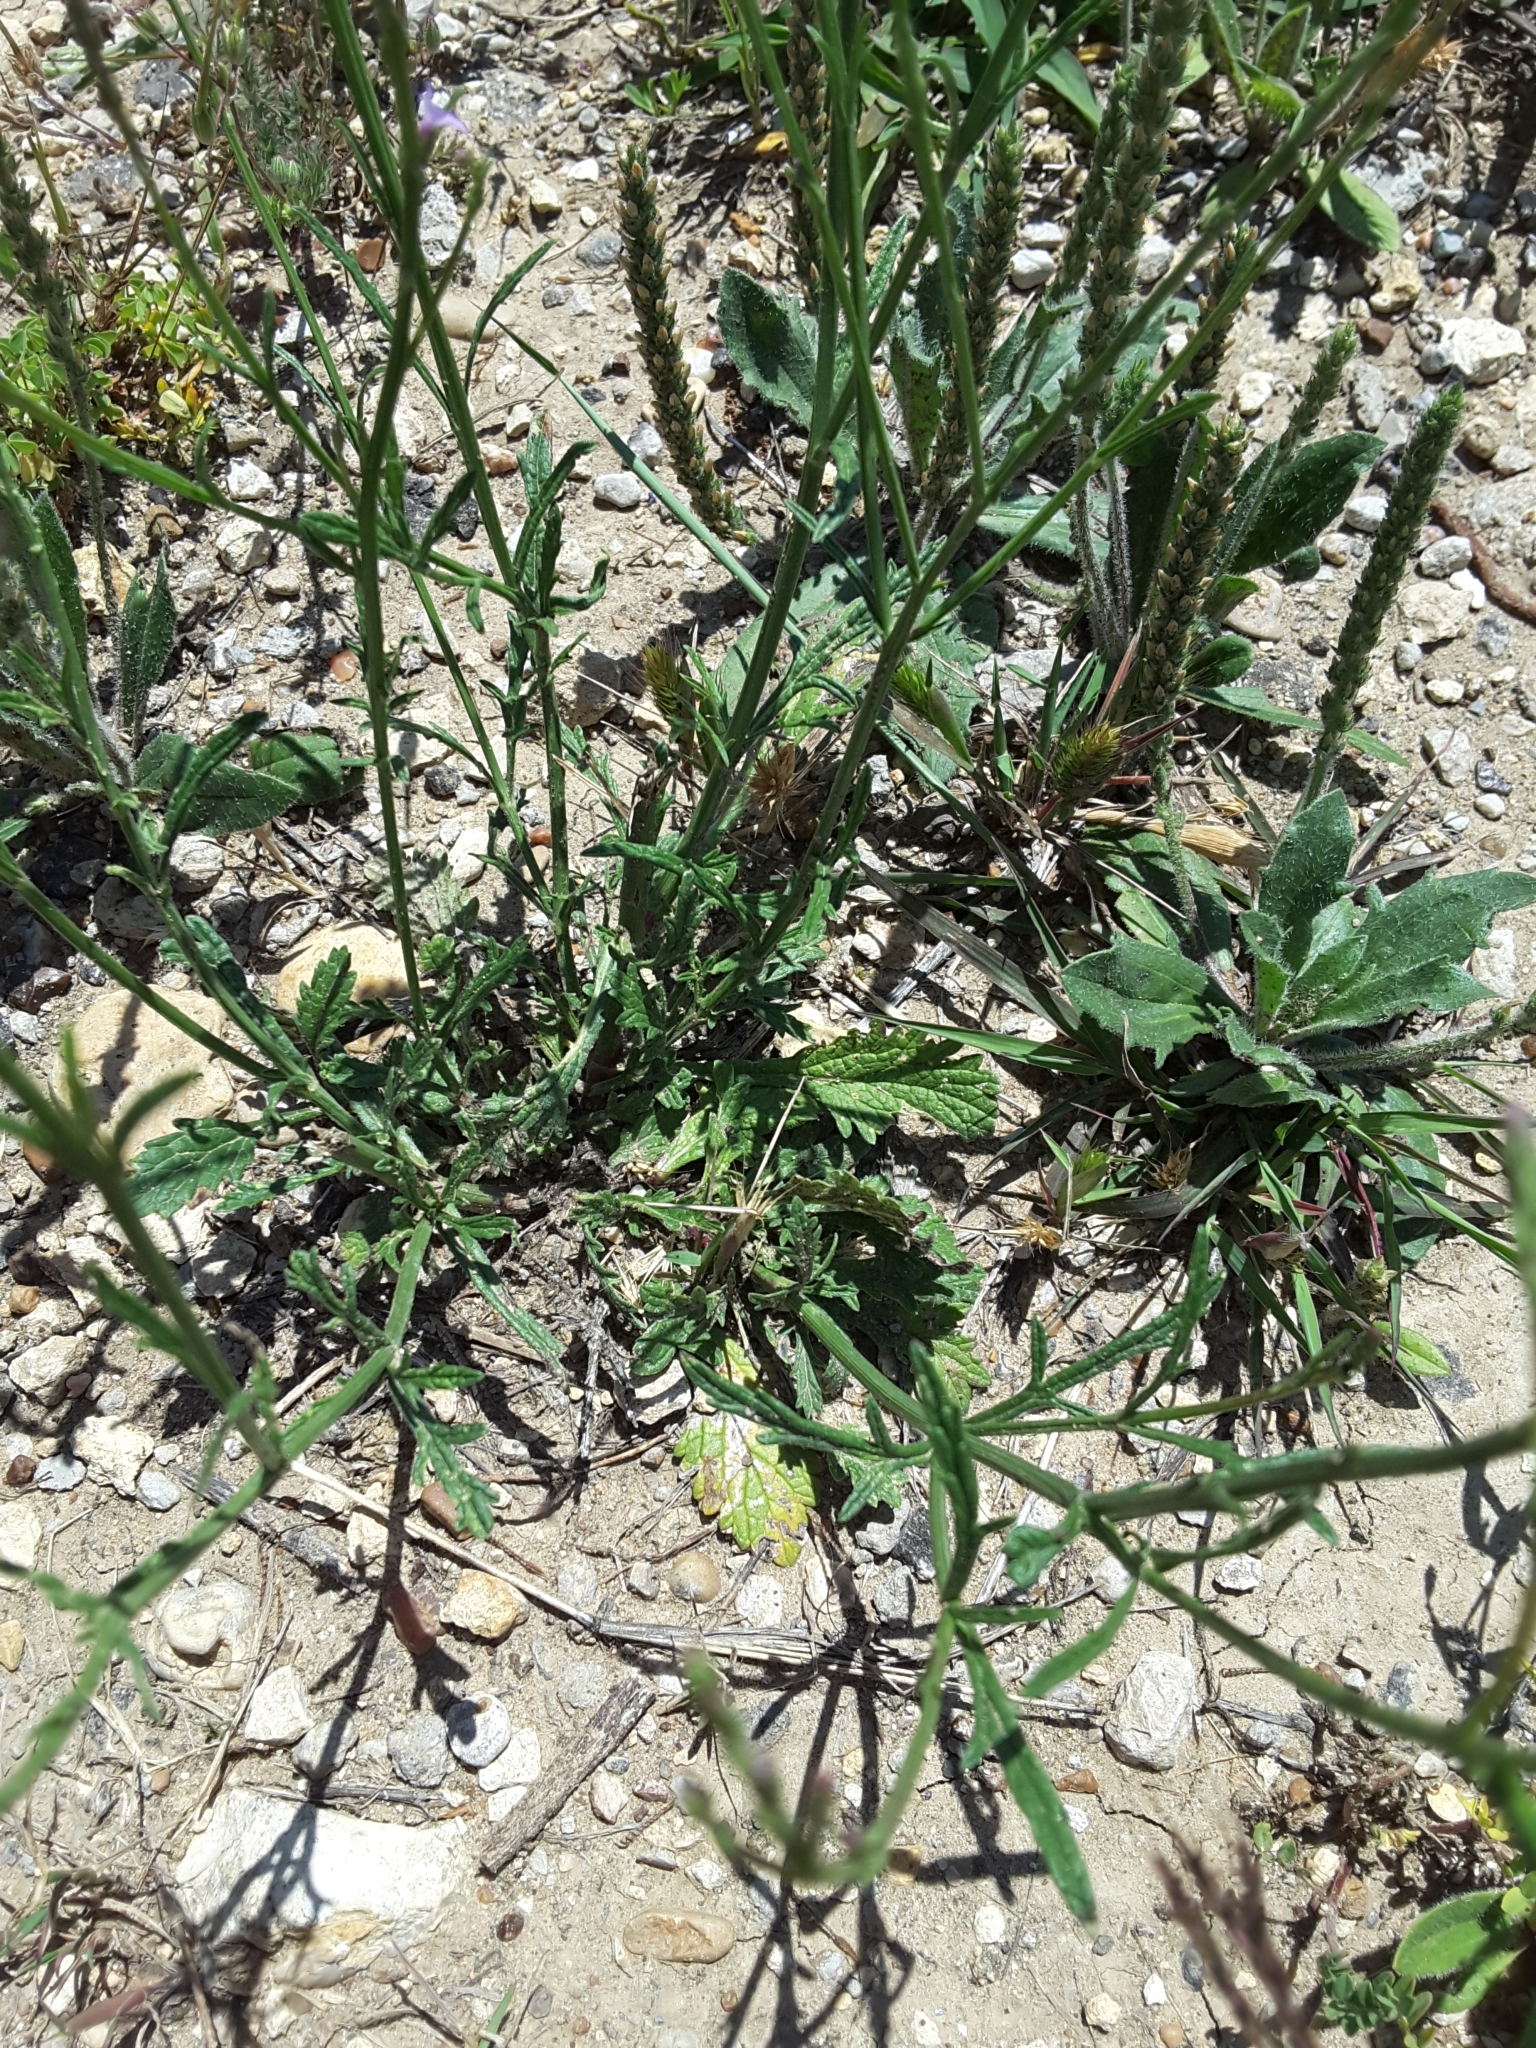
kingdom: Plantae
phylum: Tracheophyta
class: Magnoliopsida
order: Lamiales
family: Verbenaceae
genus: Verbena
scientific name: Verbena halei
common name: Texas vervain
